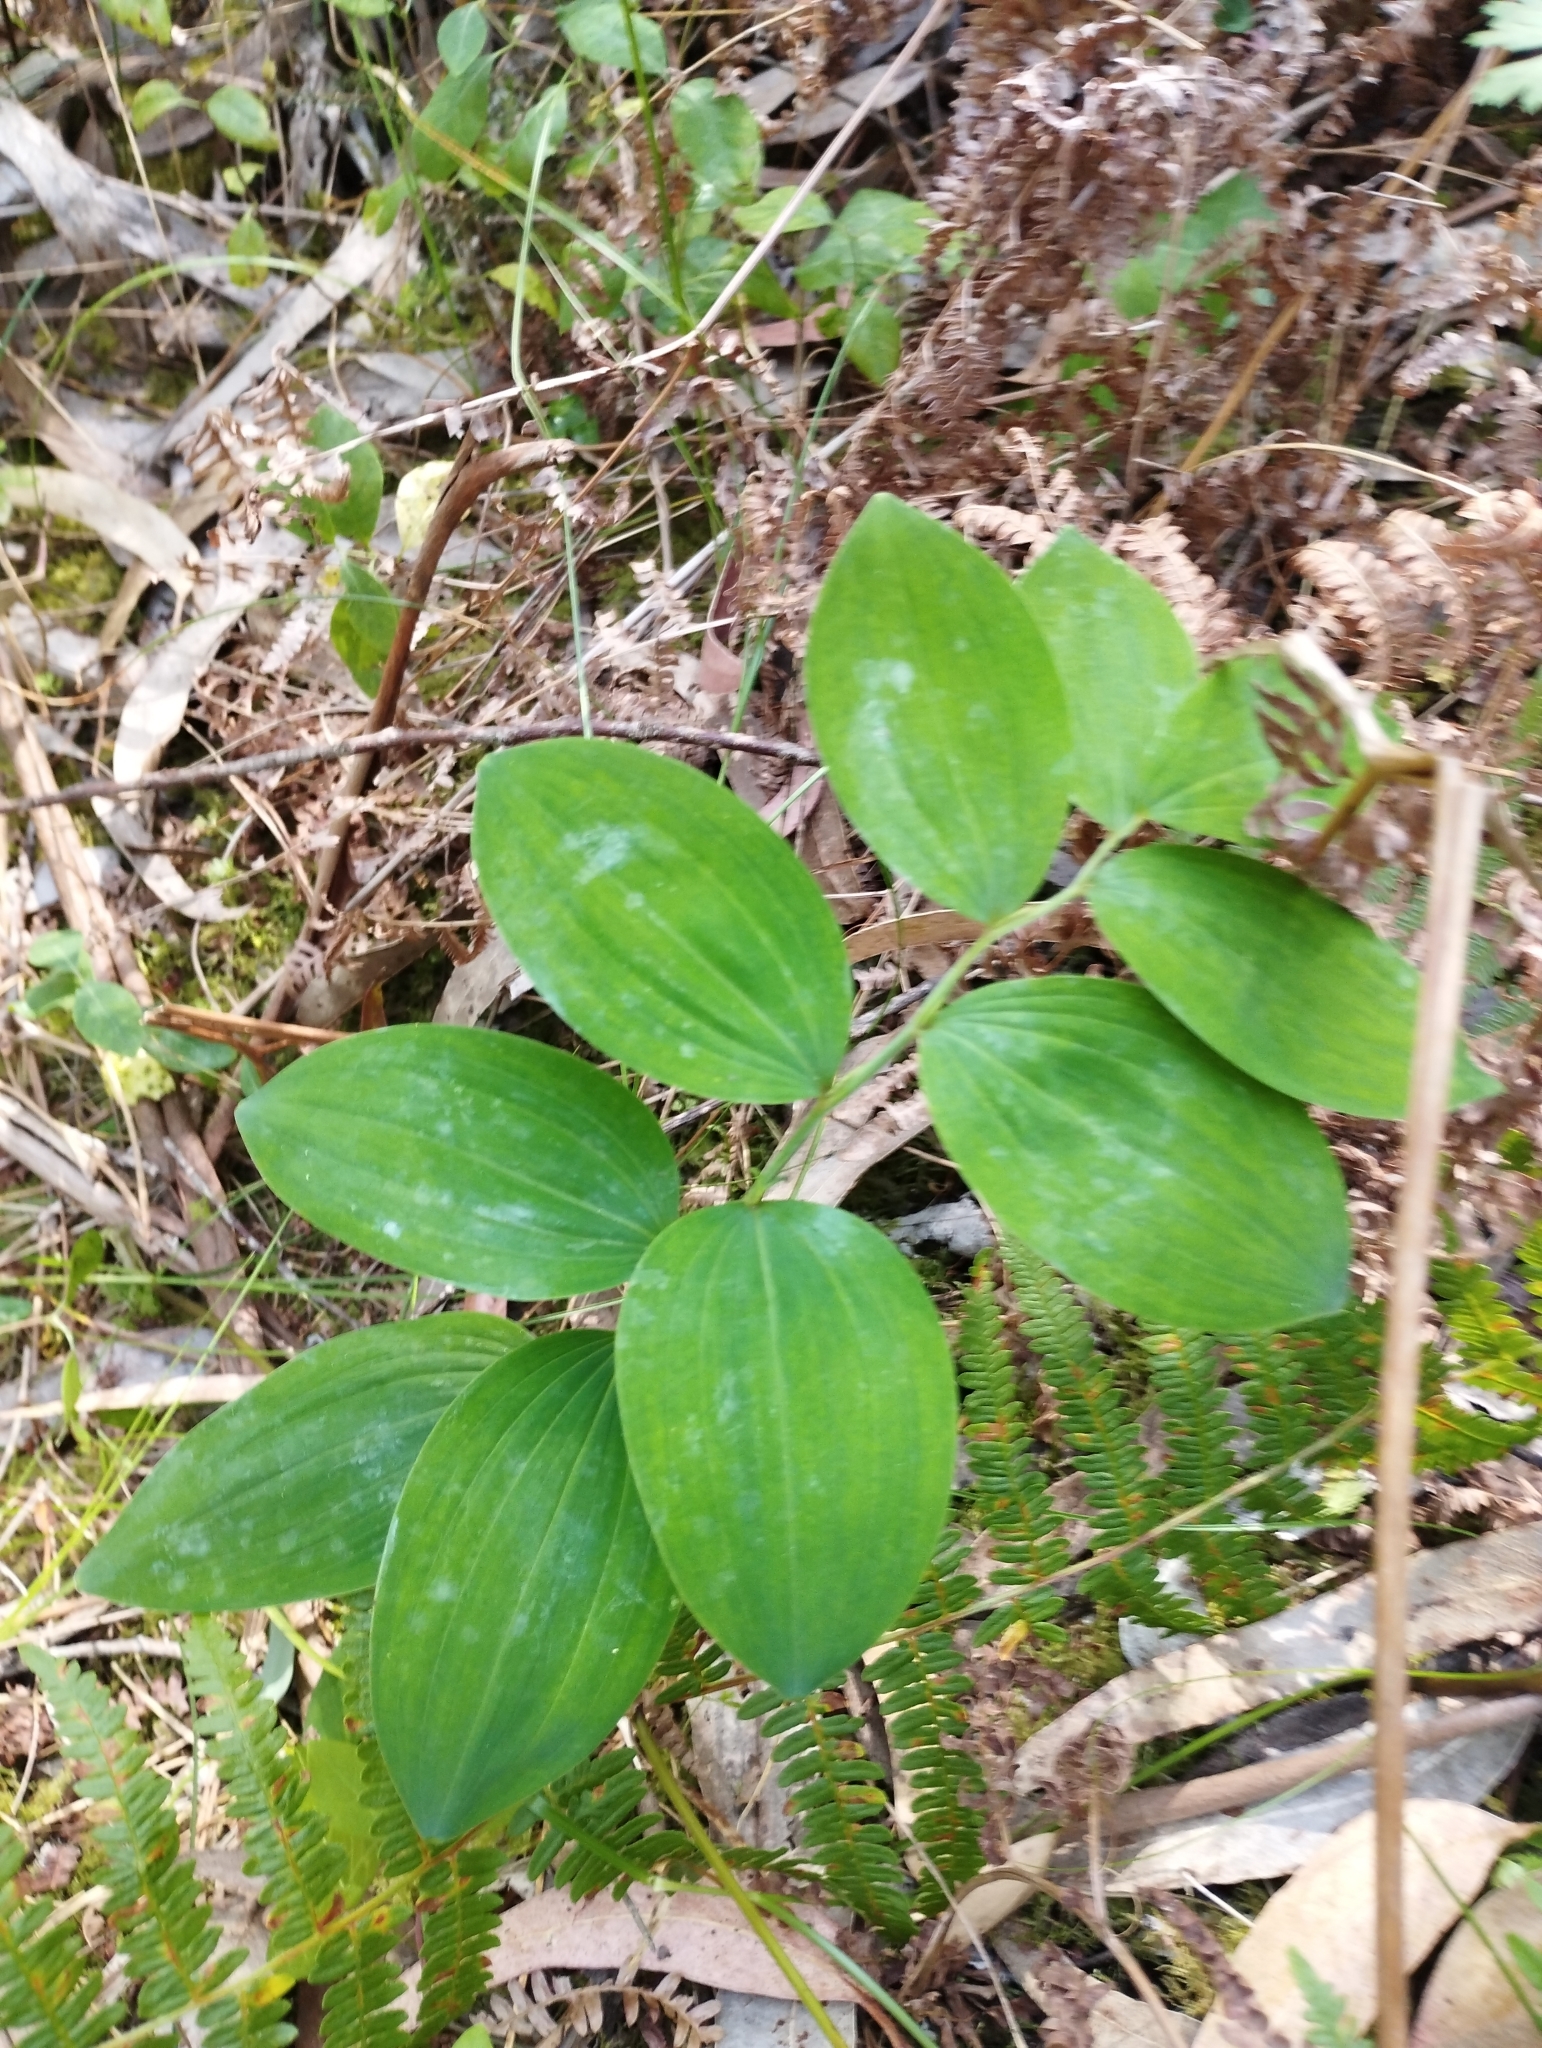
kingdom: Plantae
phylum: Tracheophyta
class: Liliopsida
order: Asparagales
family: Asparagaceae
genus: Polygonatum
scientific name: Polygonatum odoratum
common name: Angular solomon's-seal
